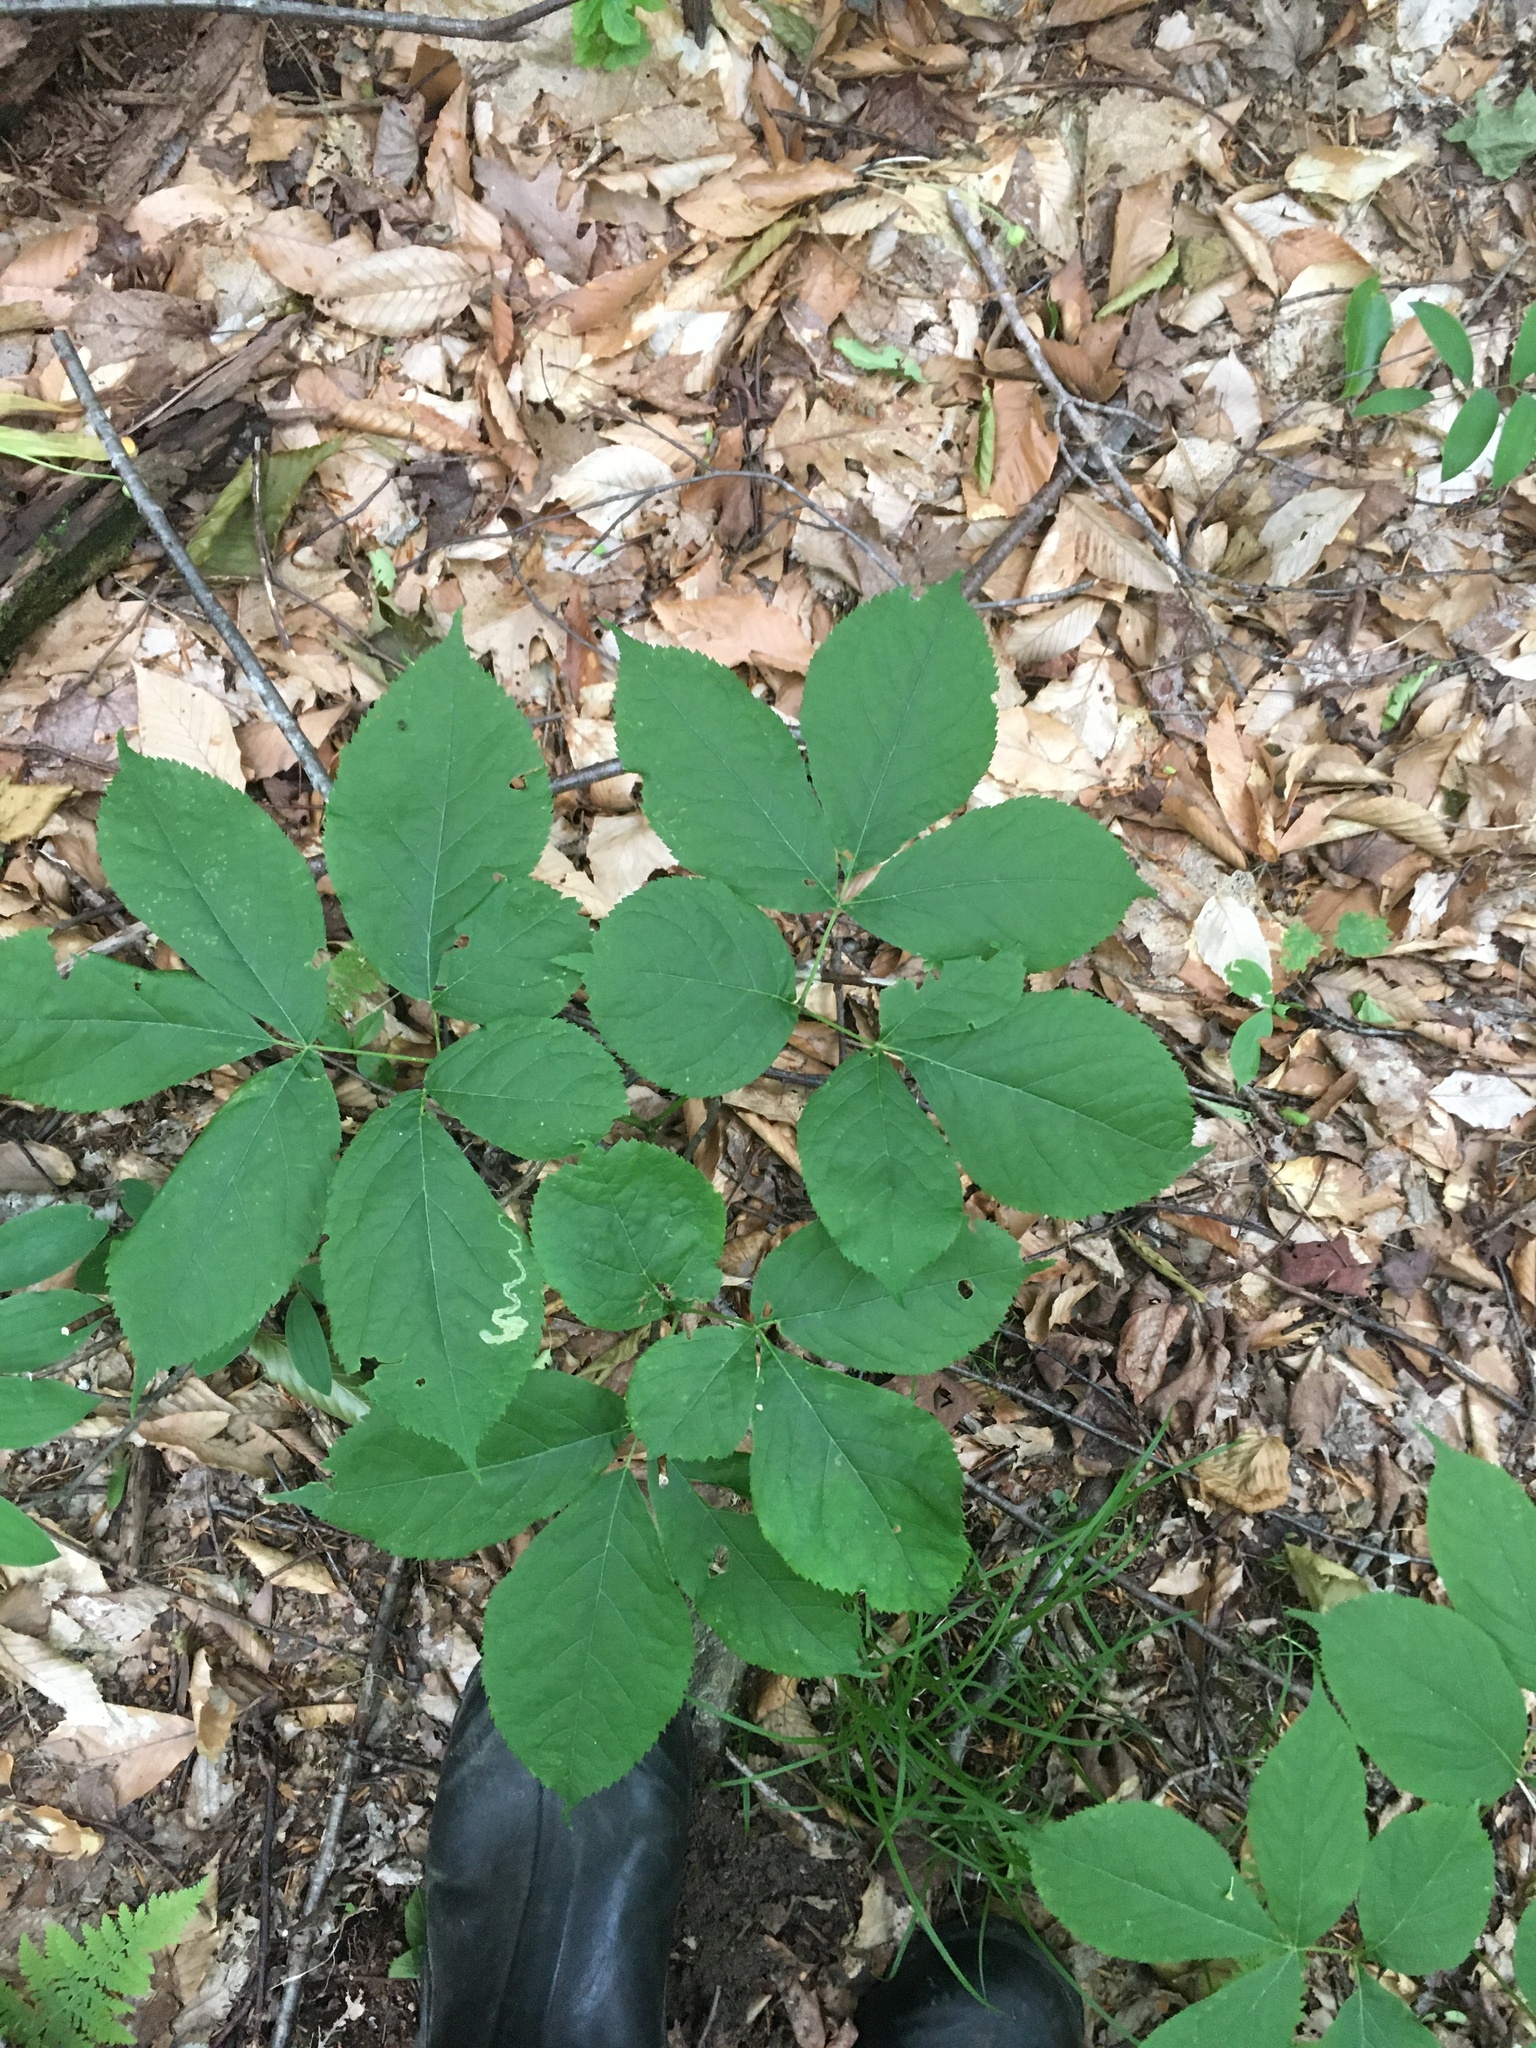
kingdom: Plantae
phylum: Tracheophyta
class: Magnoliopsida
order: Apiales
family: Araliaceae
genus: Aralia
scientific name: Aralia nudicaulis
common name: Wild sarsaparilla
